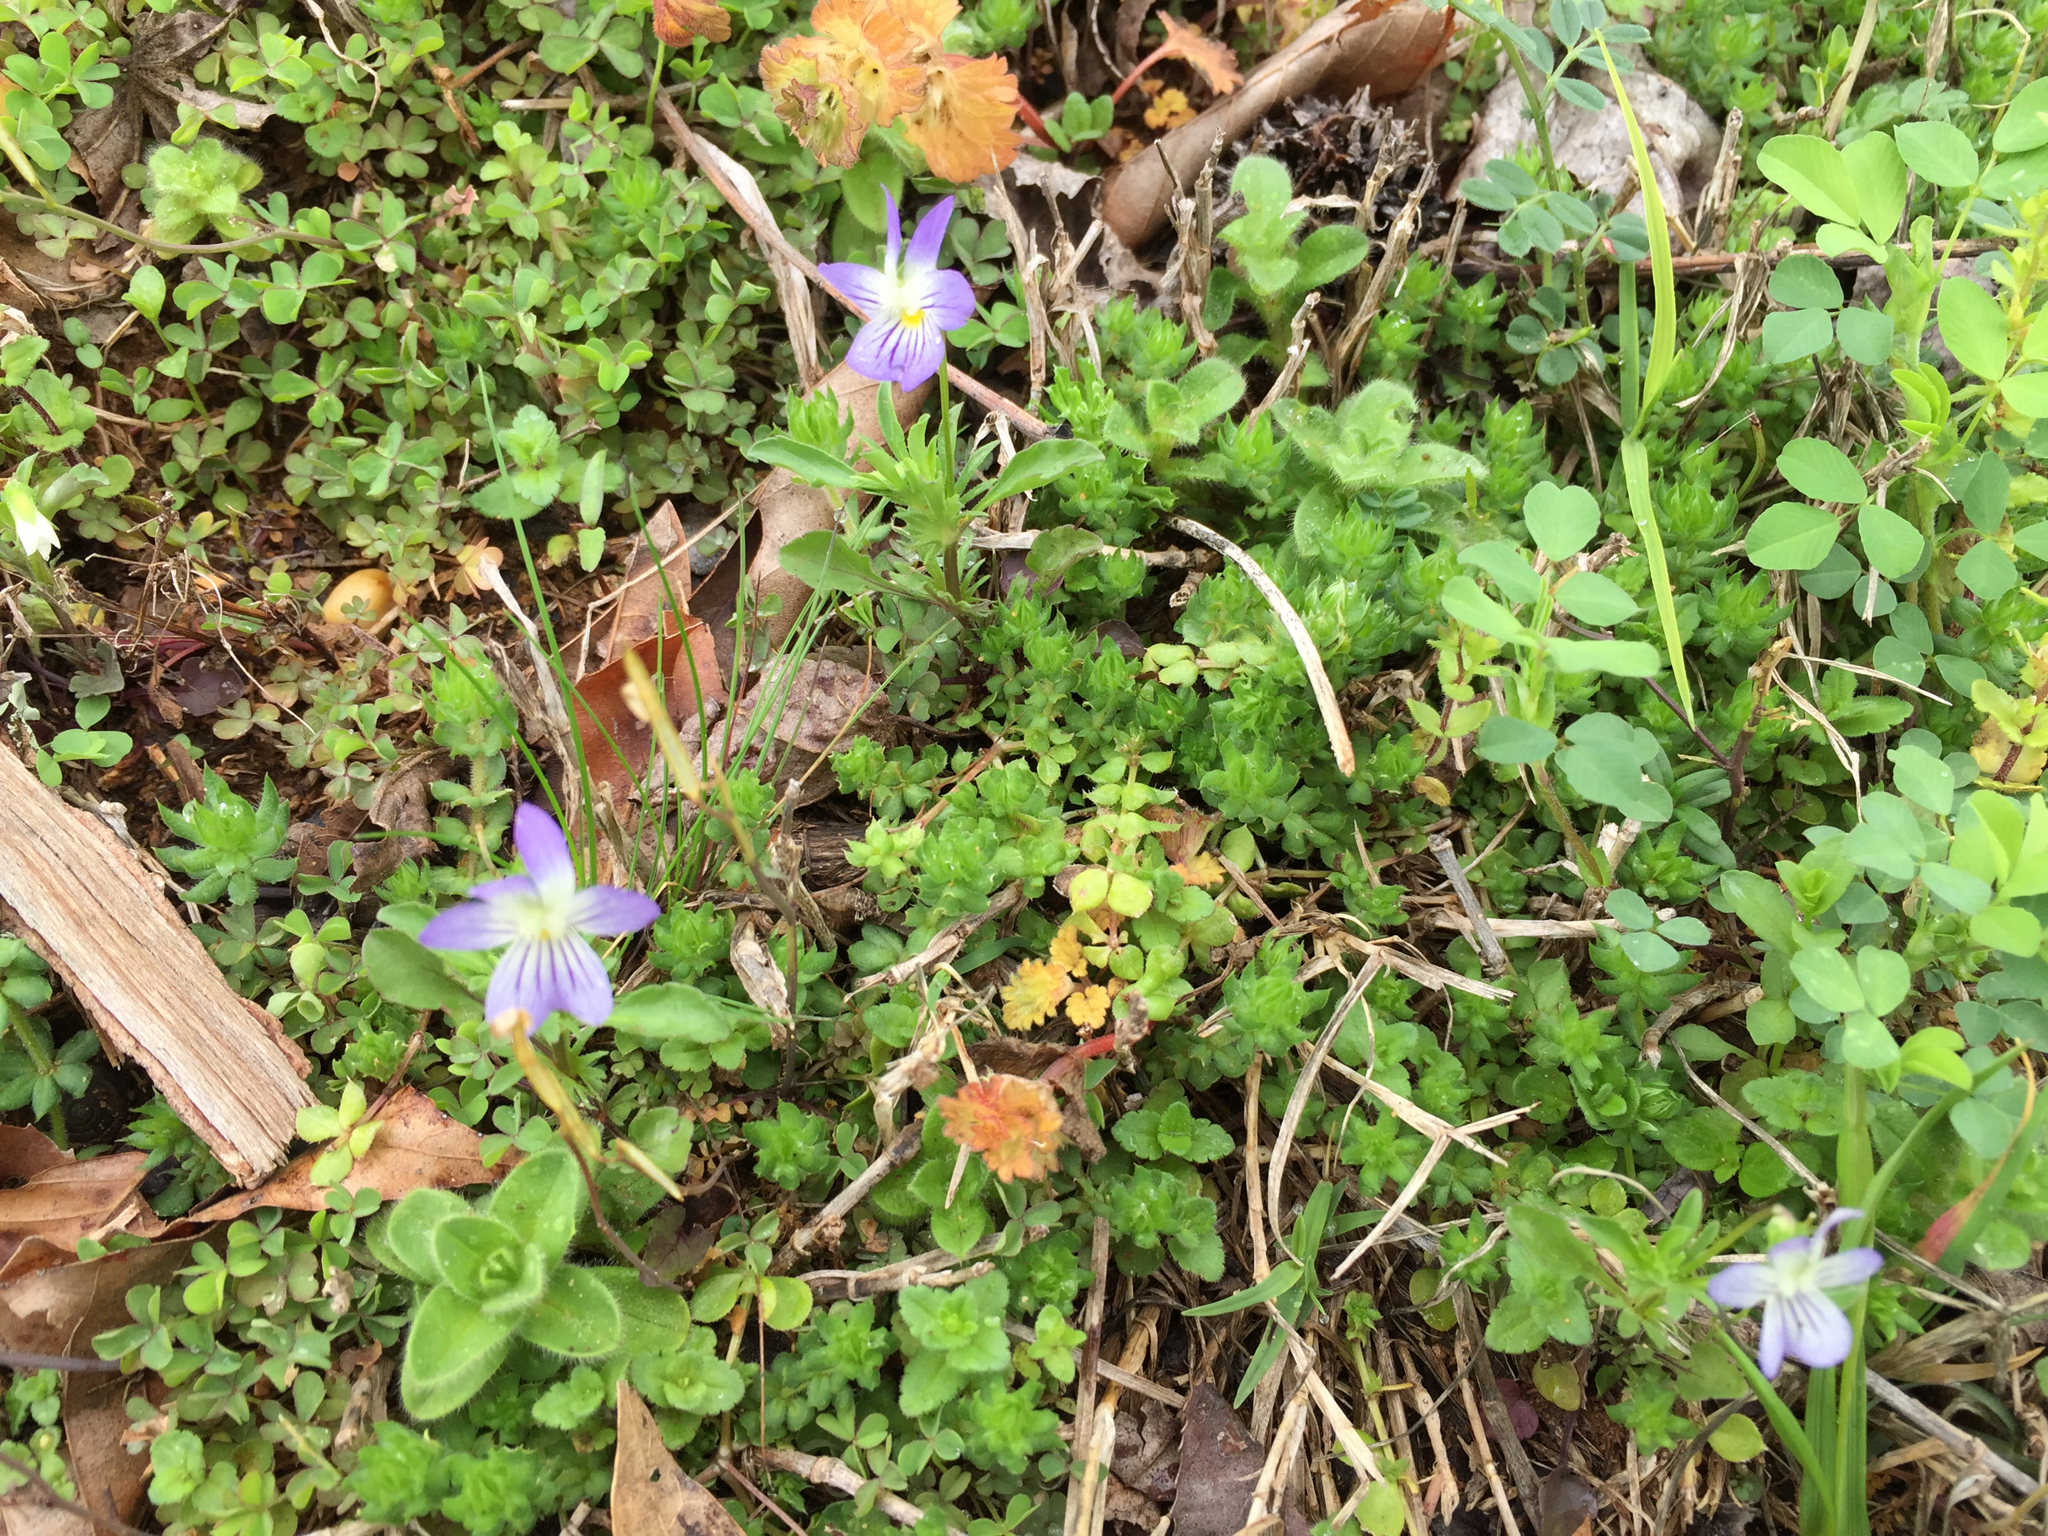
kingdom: Plantae
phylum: Tracheophyta
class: Magnoliopsida
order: Malpighiales
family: Violaceae
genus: Viola
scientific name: Viola rafinesquei
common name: American field pansy
